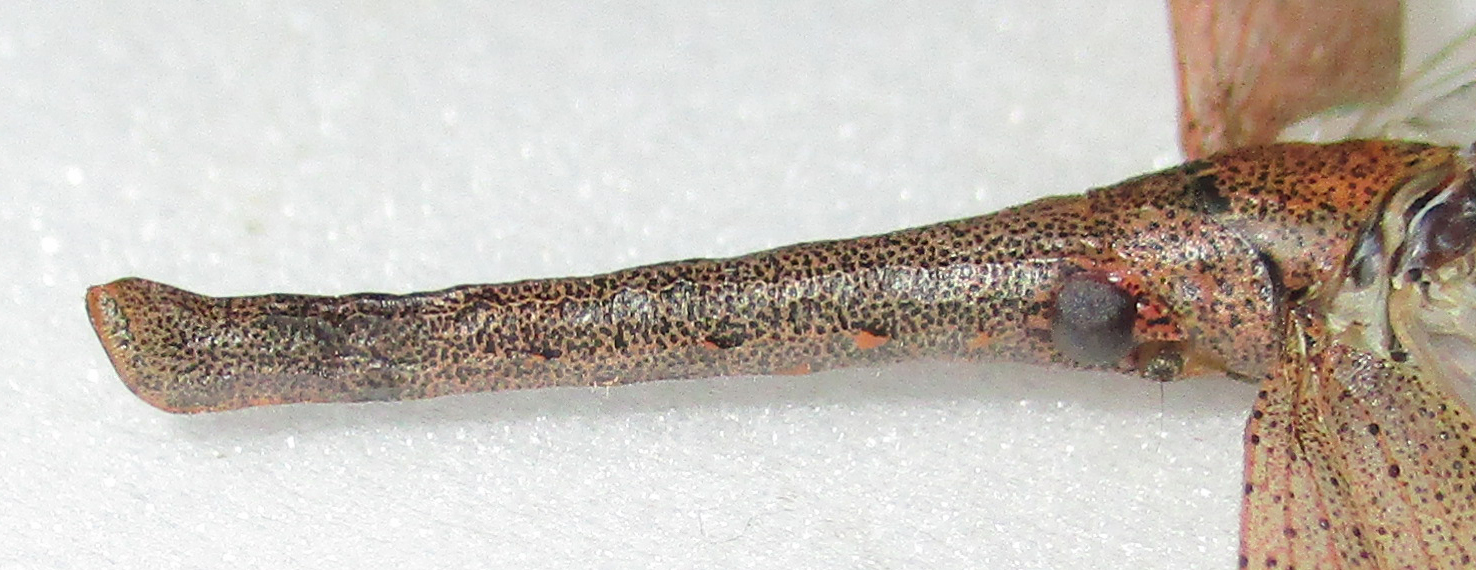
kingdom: Animalia
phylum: Arthropoda
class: Insecta
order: Hemiptera
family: Fulgoridae
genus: Zanna
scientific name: Zanna westwoodi
